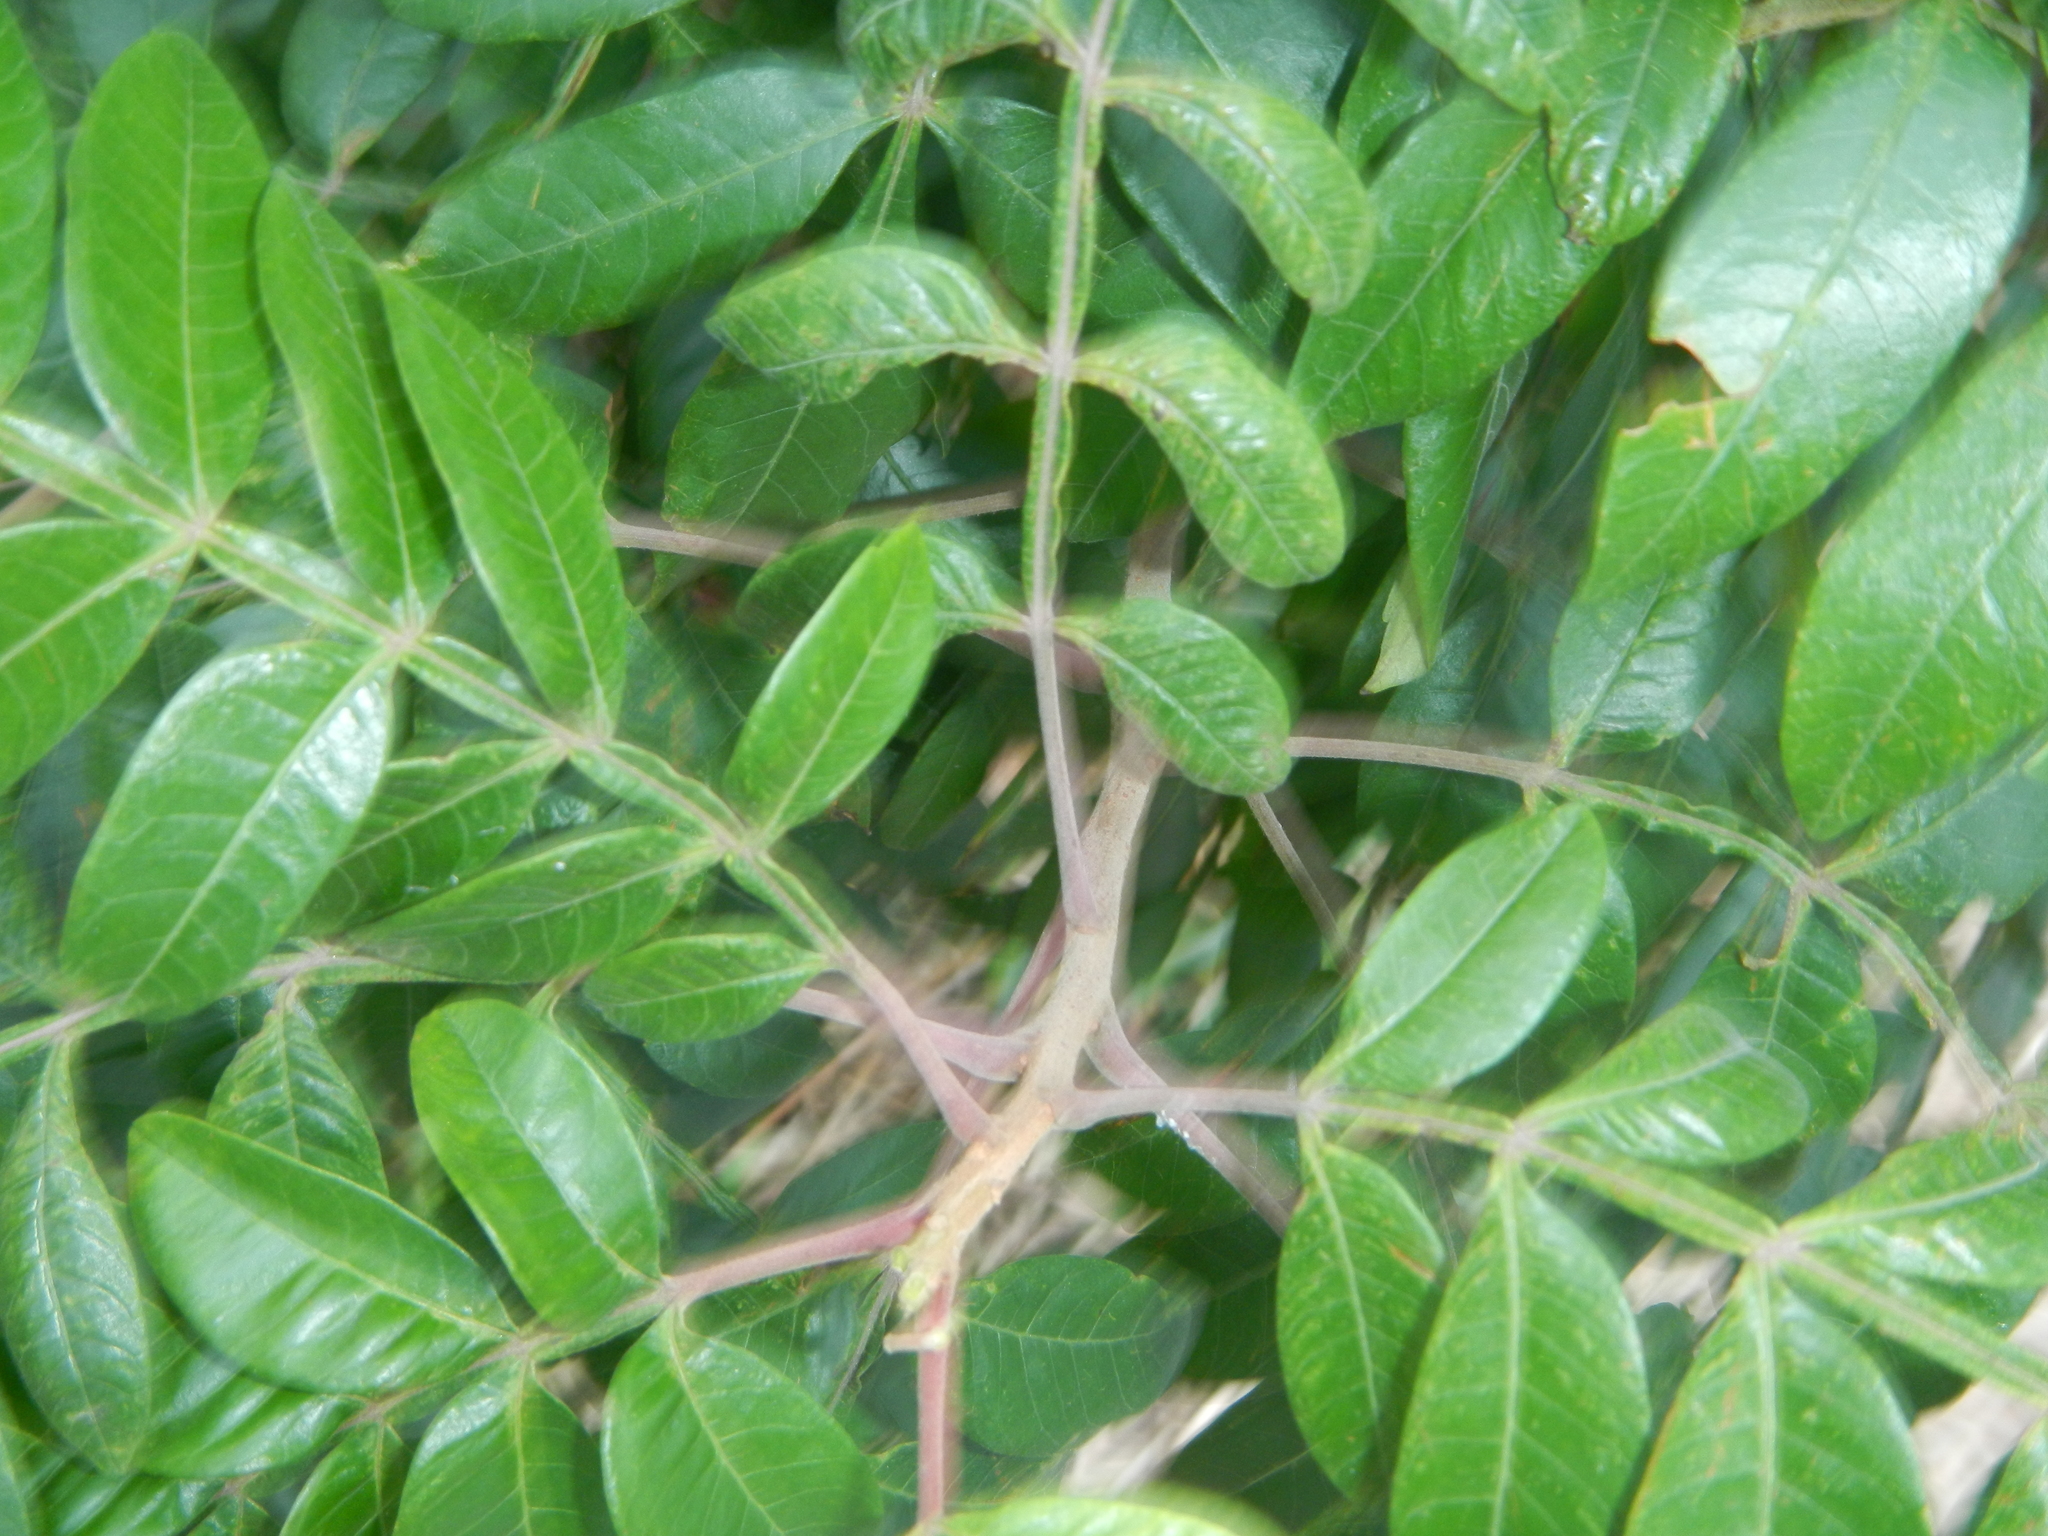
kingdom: Plantae
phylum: Tracheophyta
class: Magnoliopsida
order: Sapindales
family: Anacardiaceae
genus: Rhus
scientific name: Rhus copallina
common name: Shining sumac
